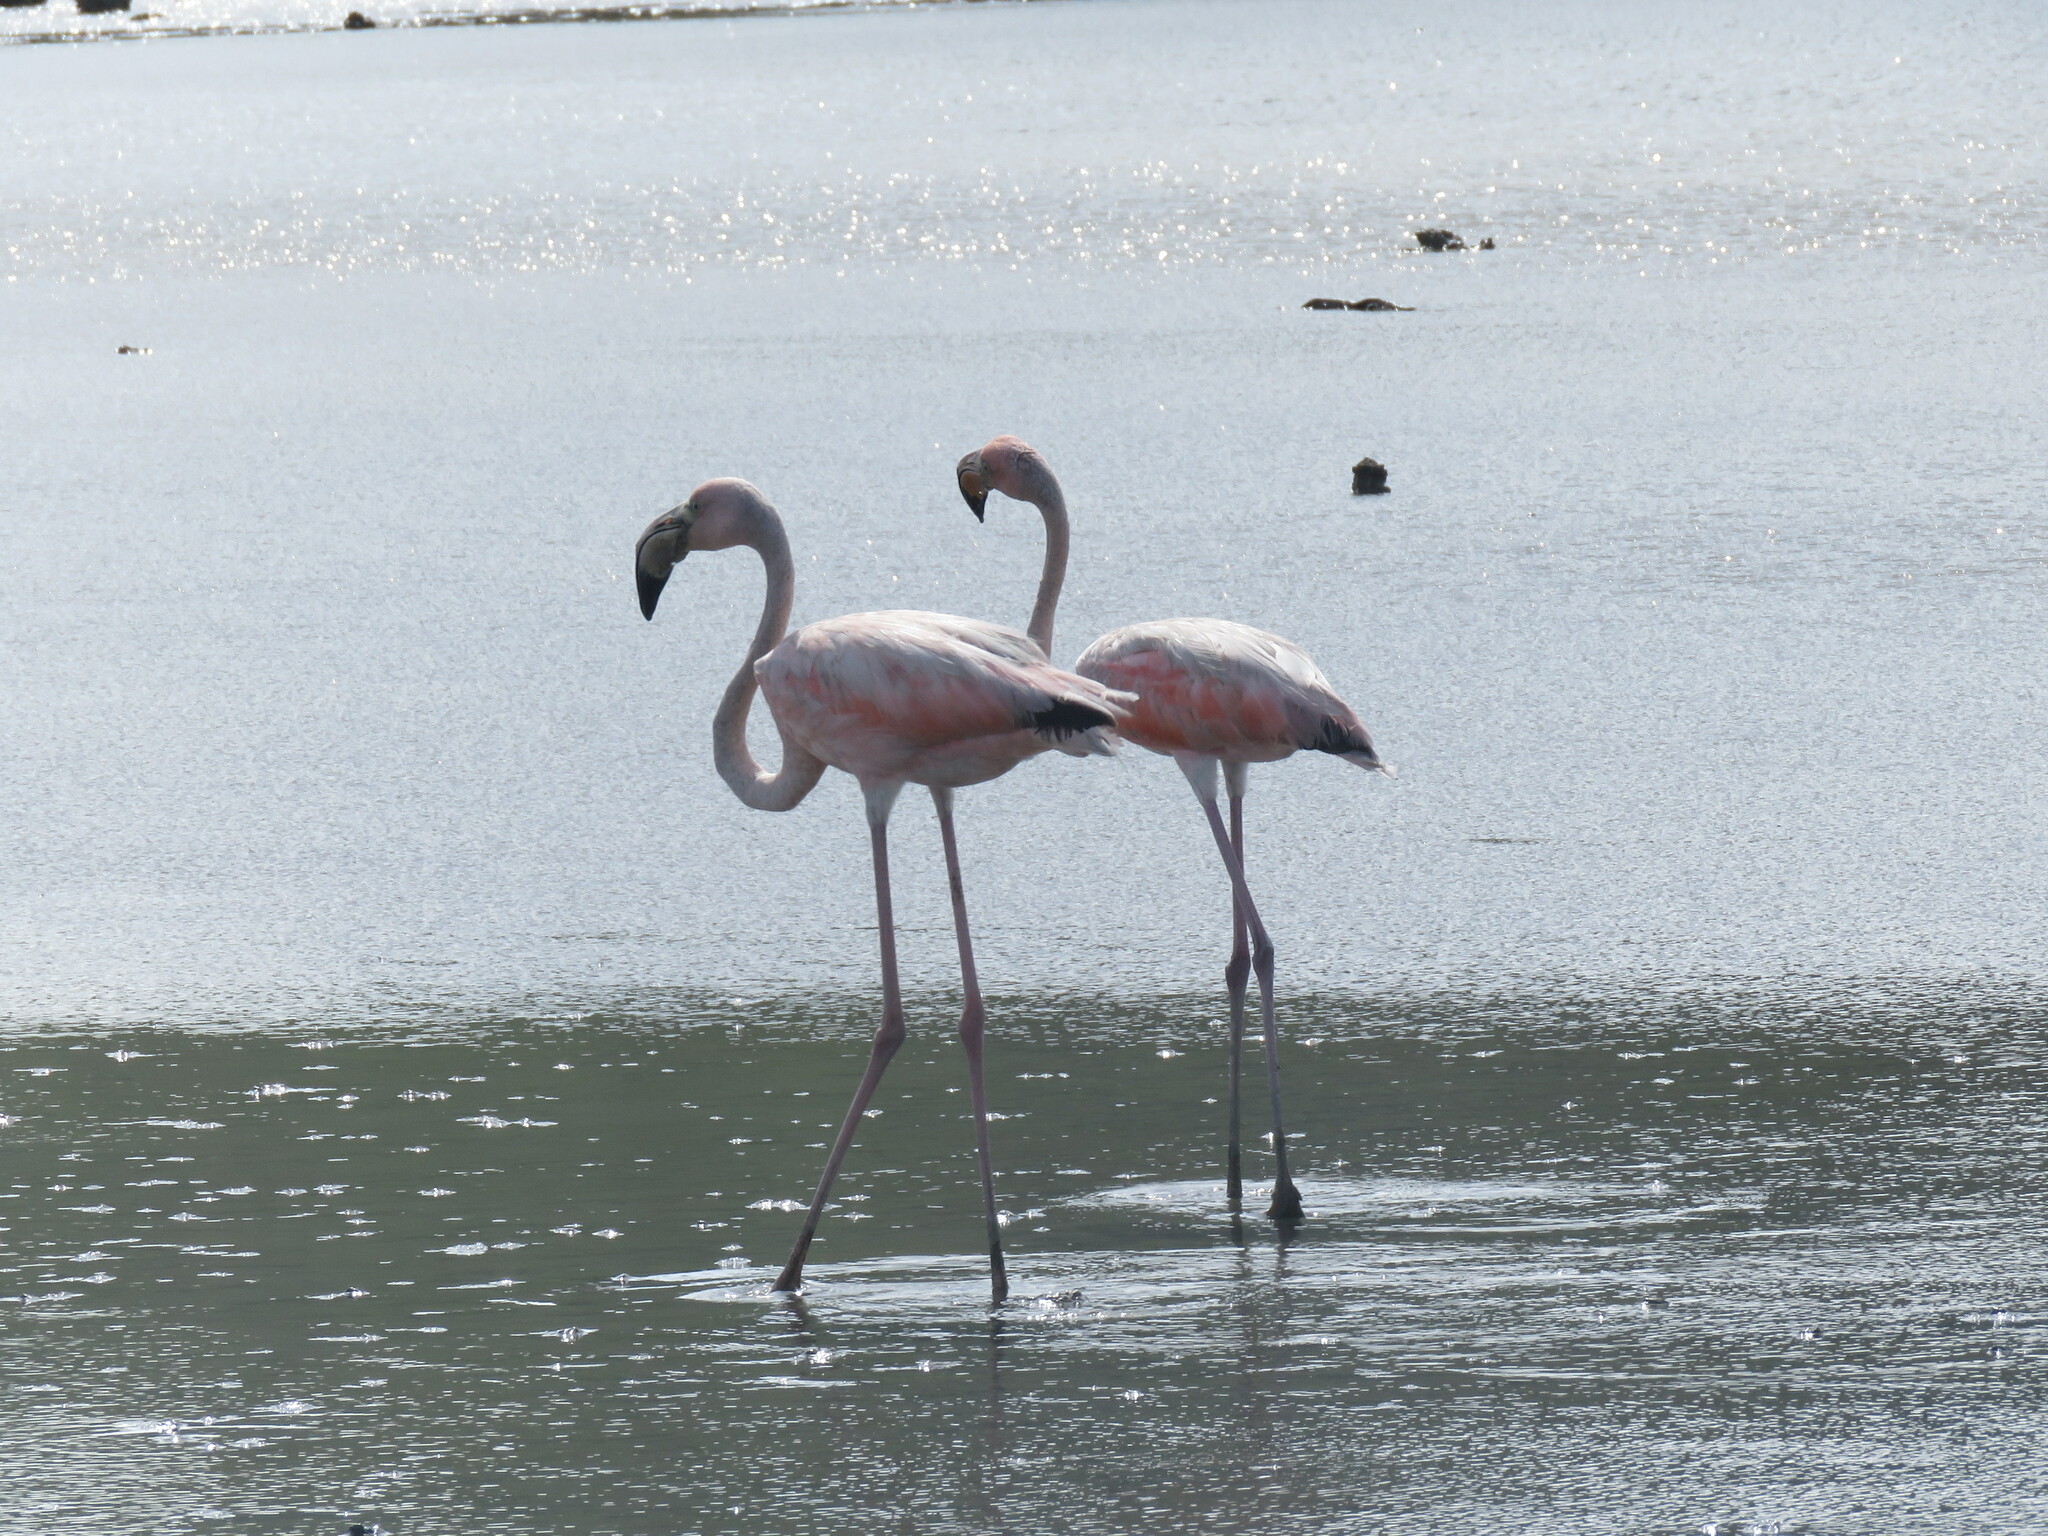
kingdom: Animalia
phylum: Chordata
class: Aves
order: Phoenicopteriformes
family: Phoenicopteridae
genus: Phoenicopterus
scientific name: Phoenicopterus ruber
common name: American flamingo
